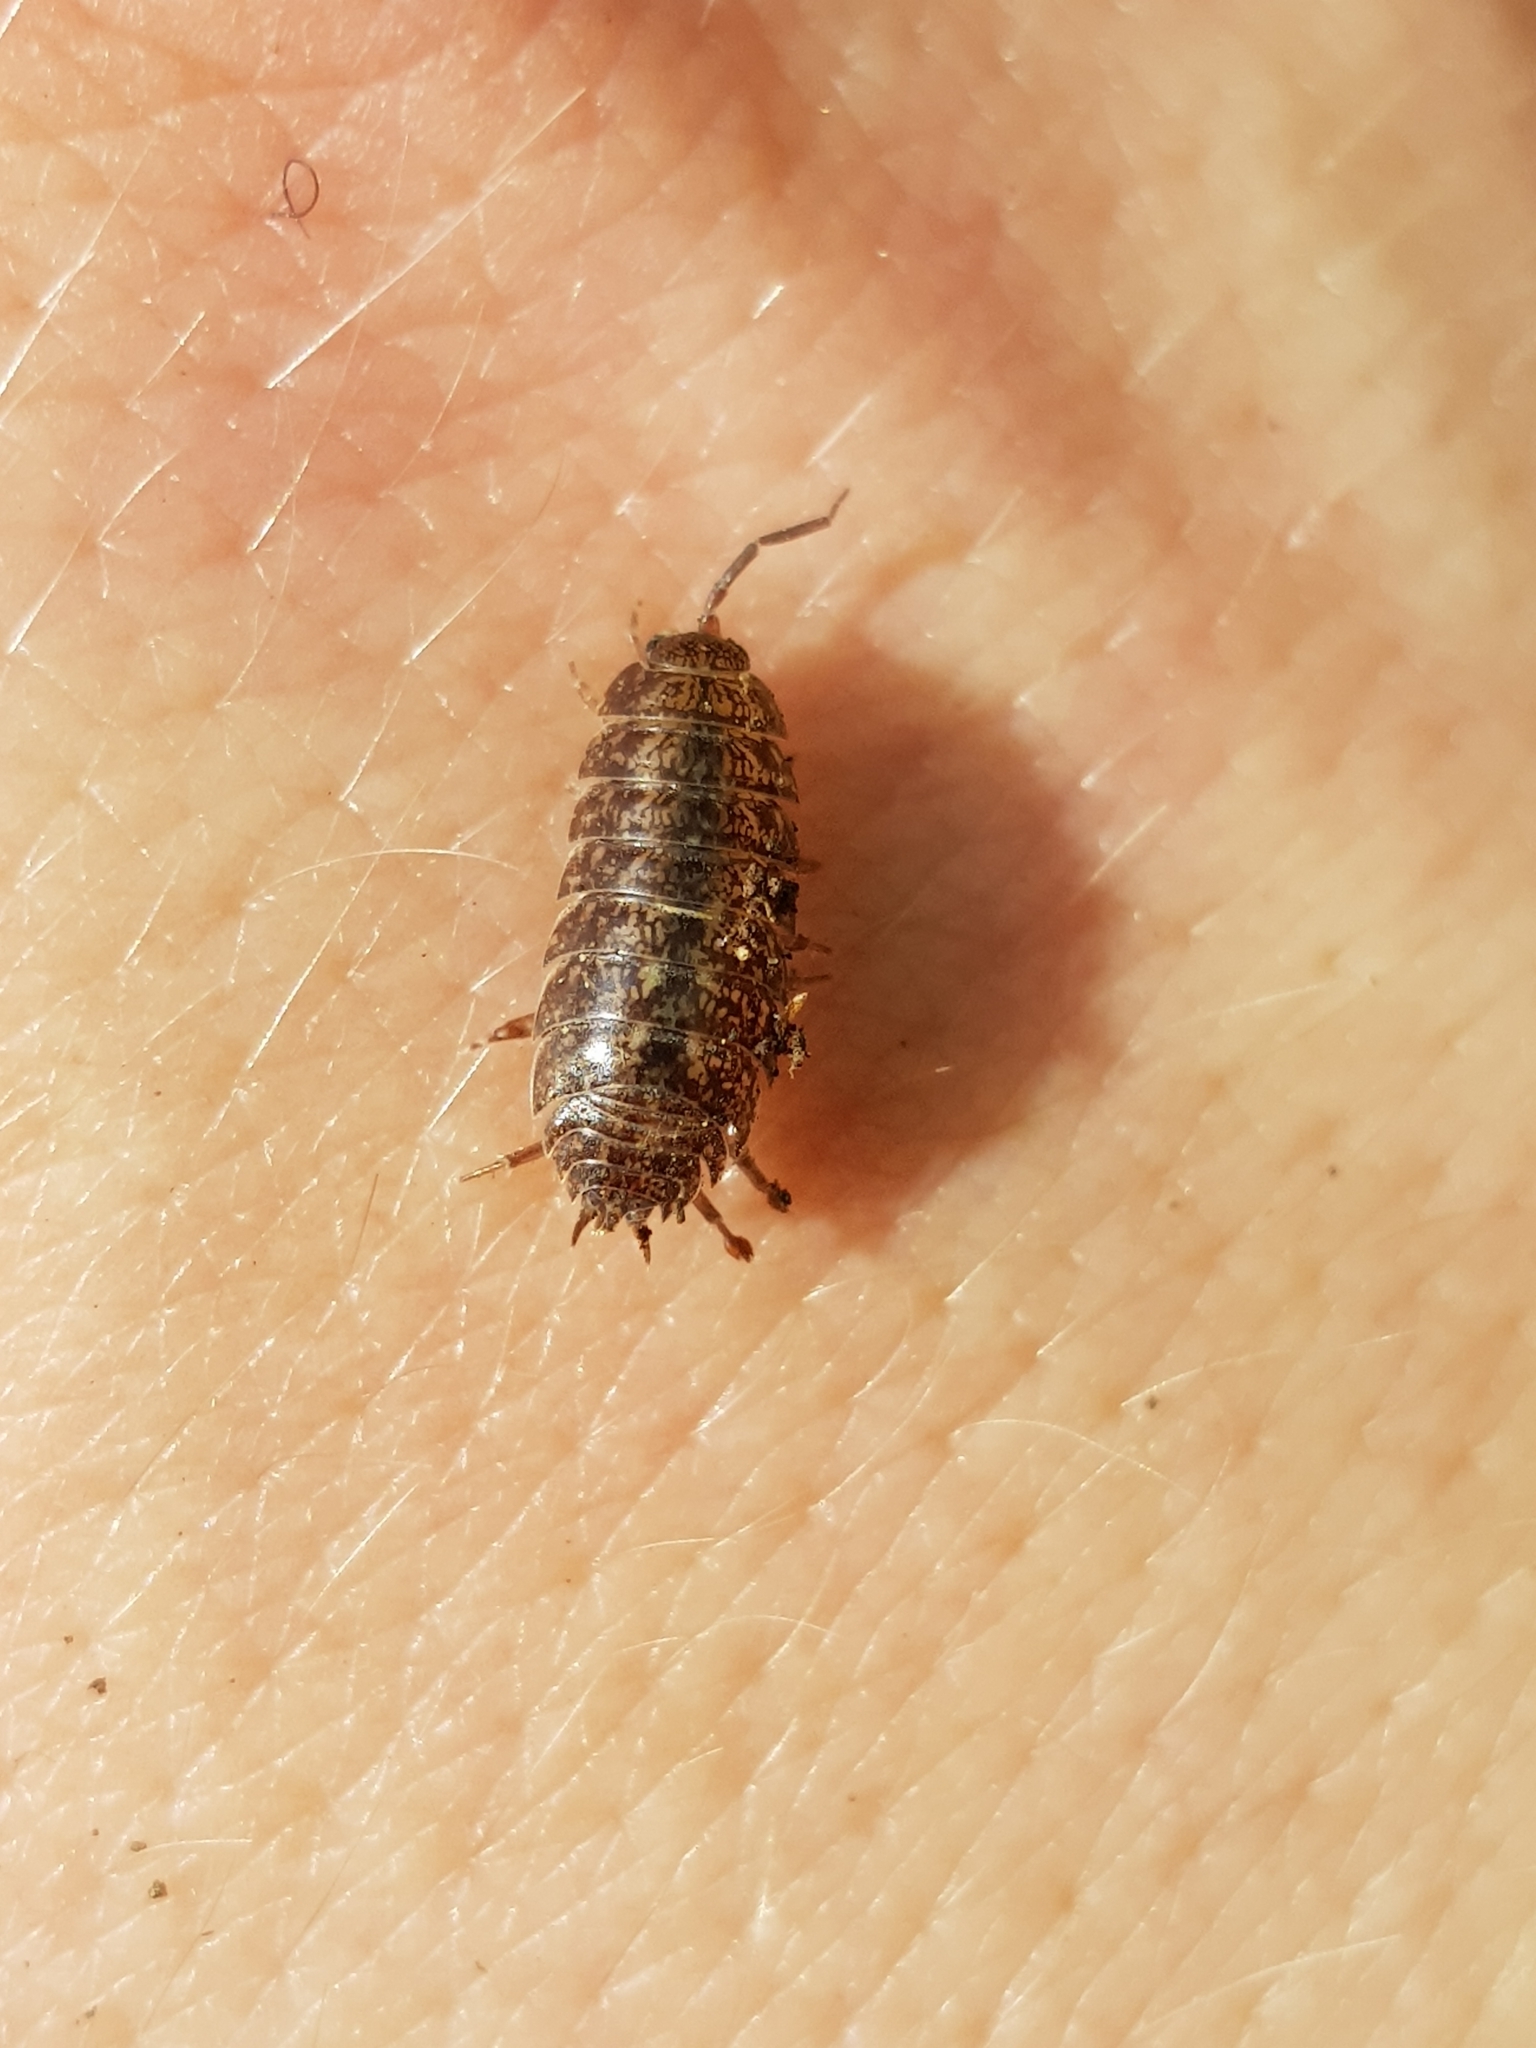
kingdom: Animalia
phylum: Arthropoda
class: Malacostraca
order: Isopoda
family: Agnaridae
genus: Protracheoniscus
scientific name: Protracheoniscus politus
